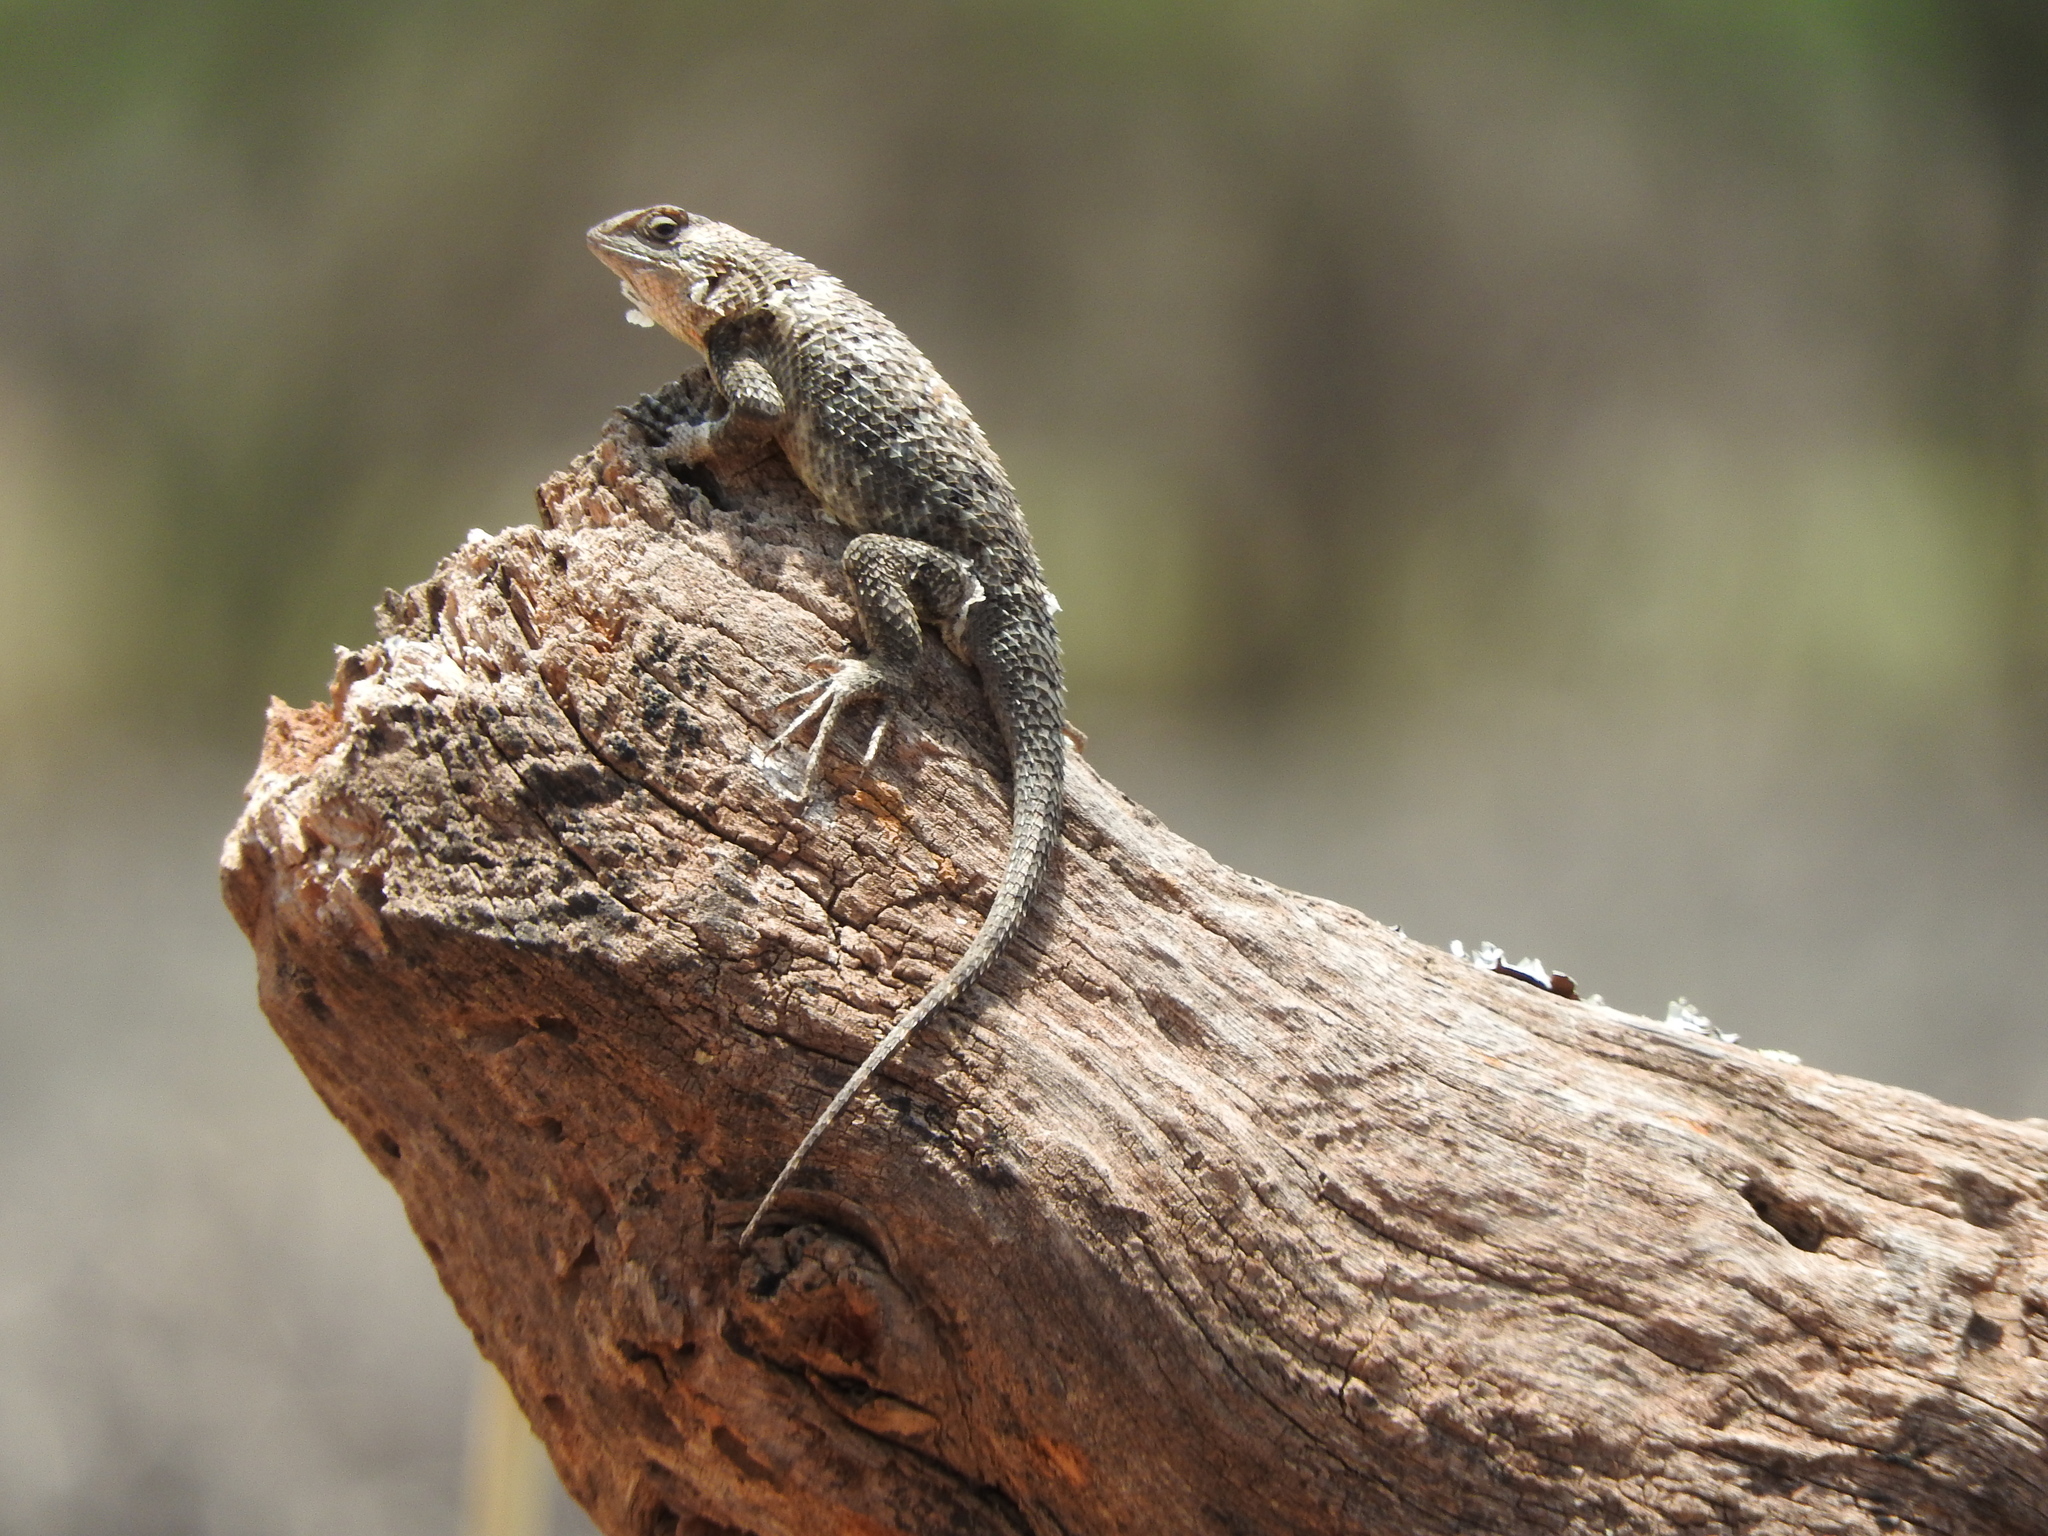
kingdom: Animalia
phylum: Chordata
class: Squamata
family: Phrynosomatidae
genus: Sceloporus
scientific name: Sceloporus spinosus
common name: Blue-spotted spiny lizard [caeruleopunctatus]
